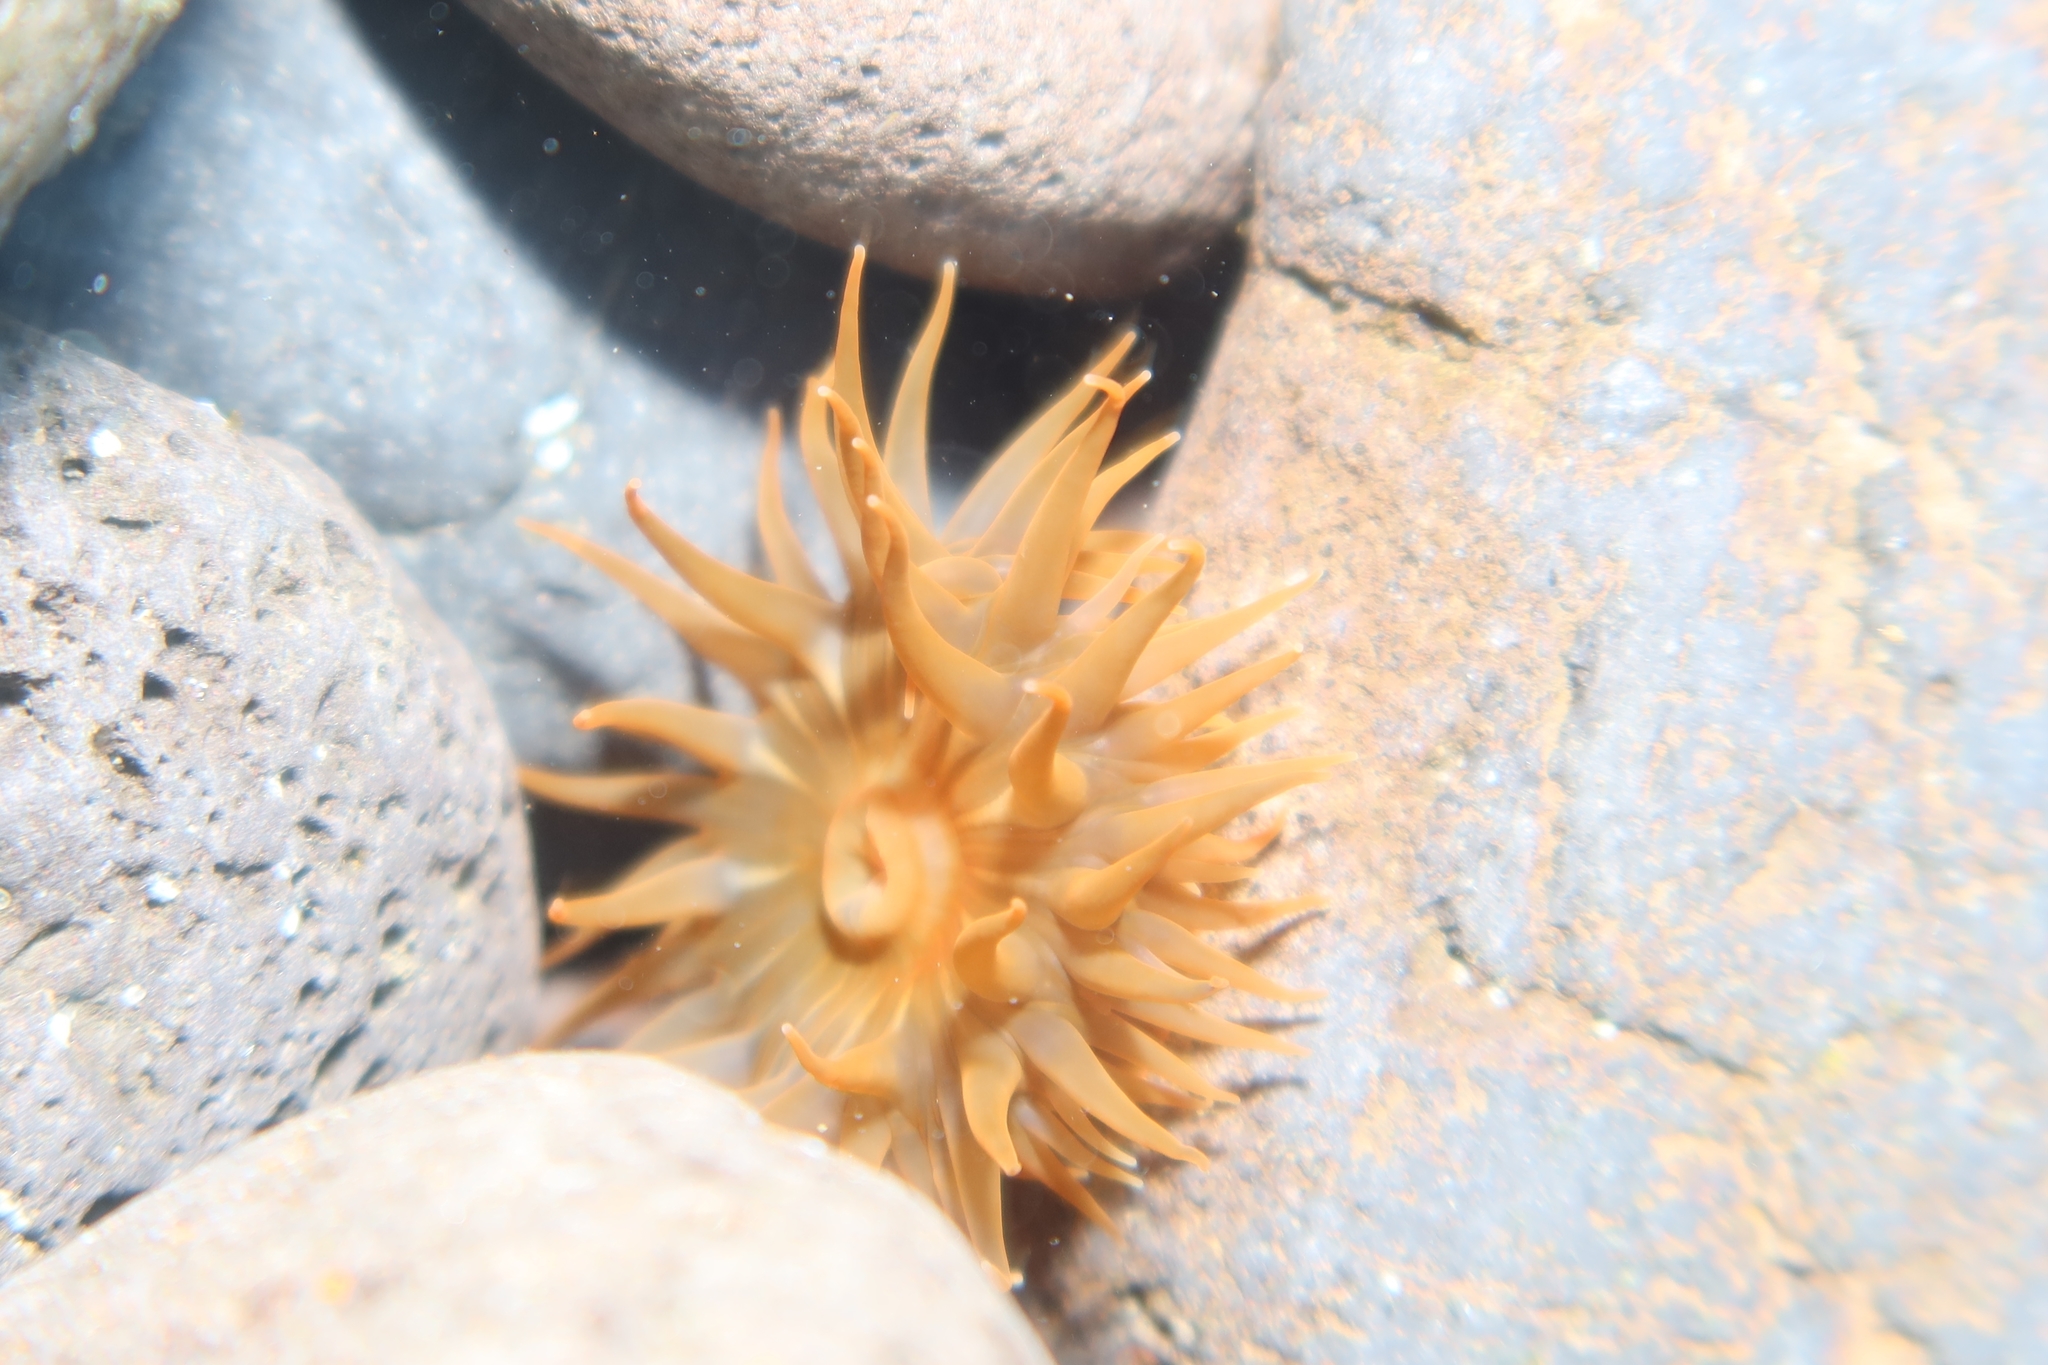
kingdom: Animalia
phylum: Cnidaria
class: Anthozoa
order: Actiniaria
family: Actiniidae
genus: Anemonia
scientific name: Anemonia sargassensis
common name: Sargassum anemone
